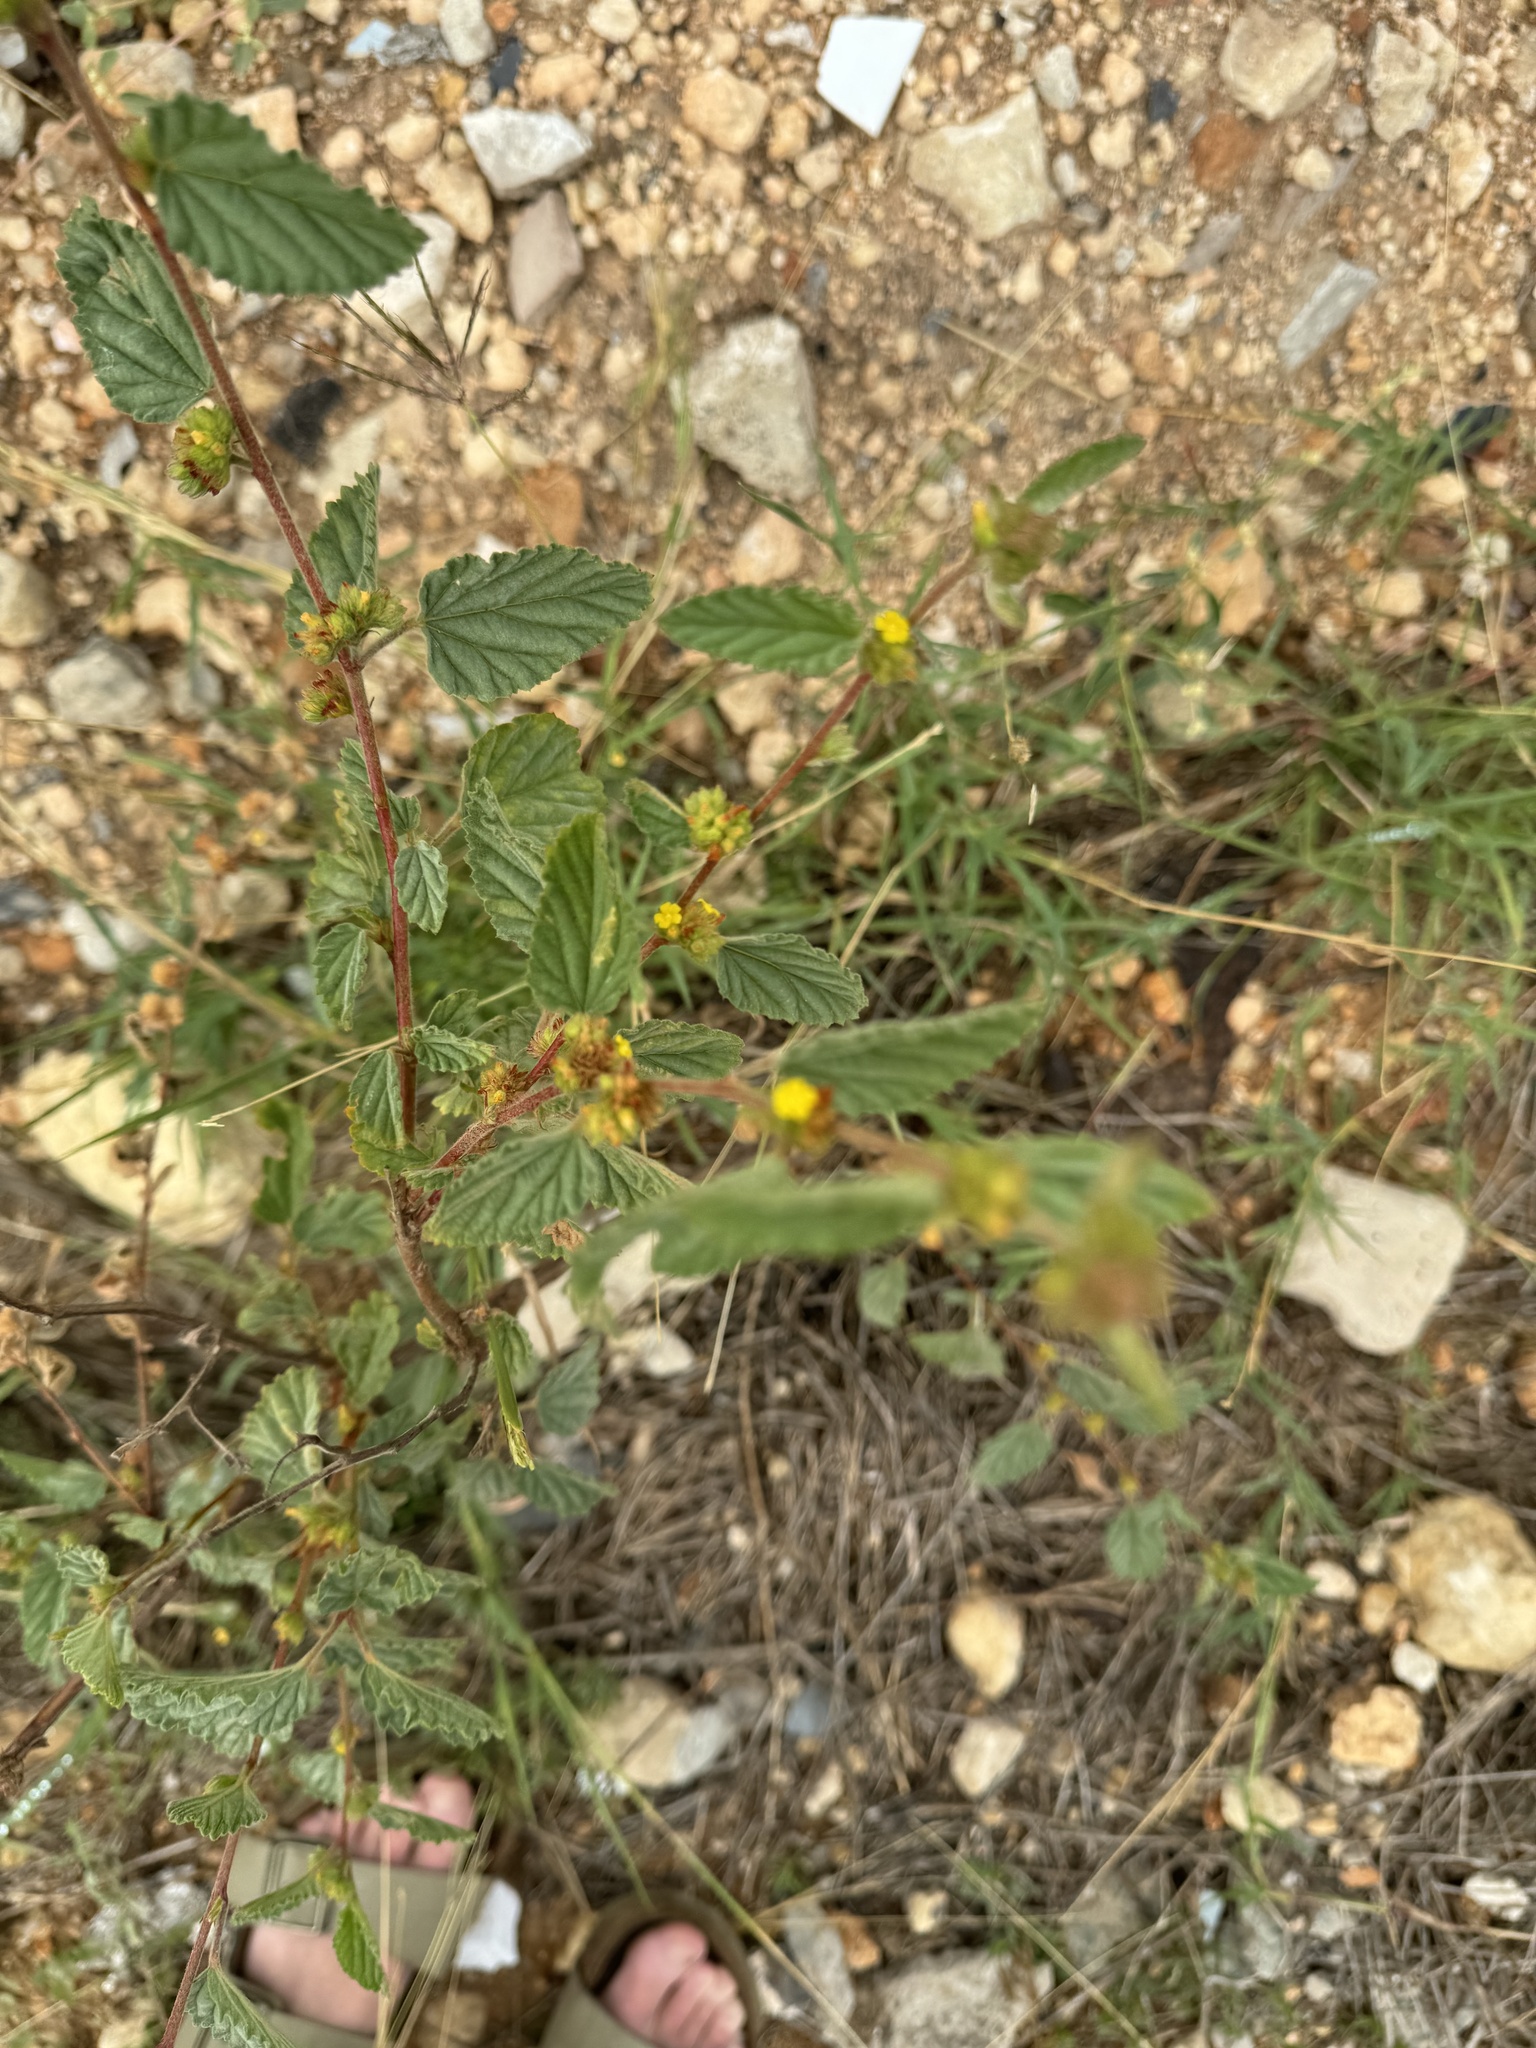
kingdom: Plantae
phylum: Tracheophyta
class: Magnoliopsida
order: Malvales
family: Malvaceae
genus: Waltheria
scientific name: Waltheria indica
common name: Leather-coat
